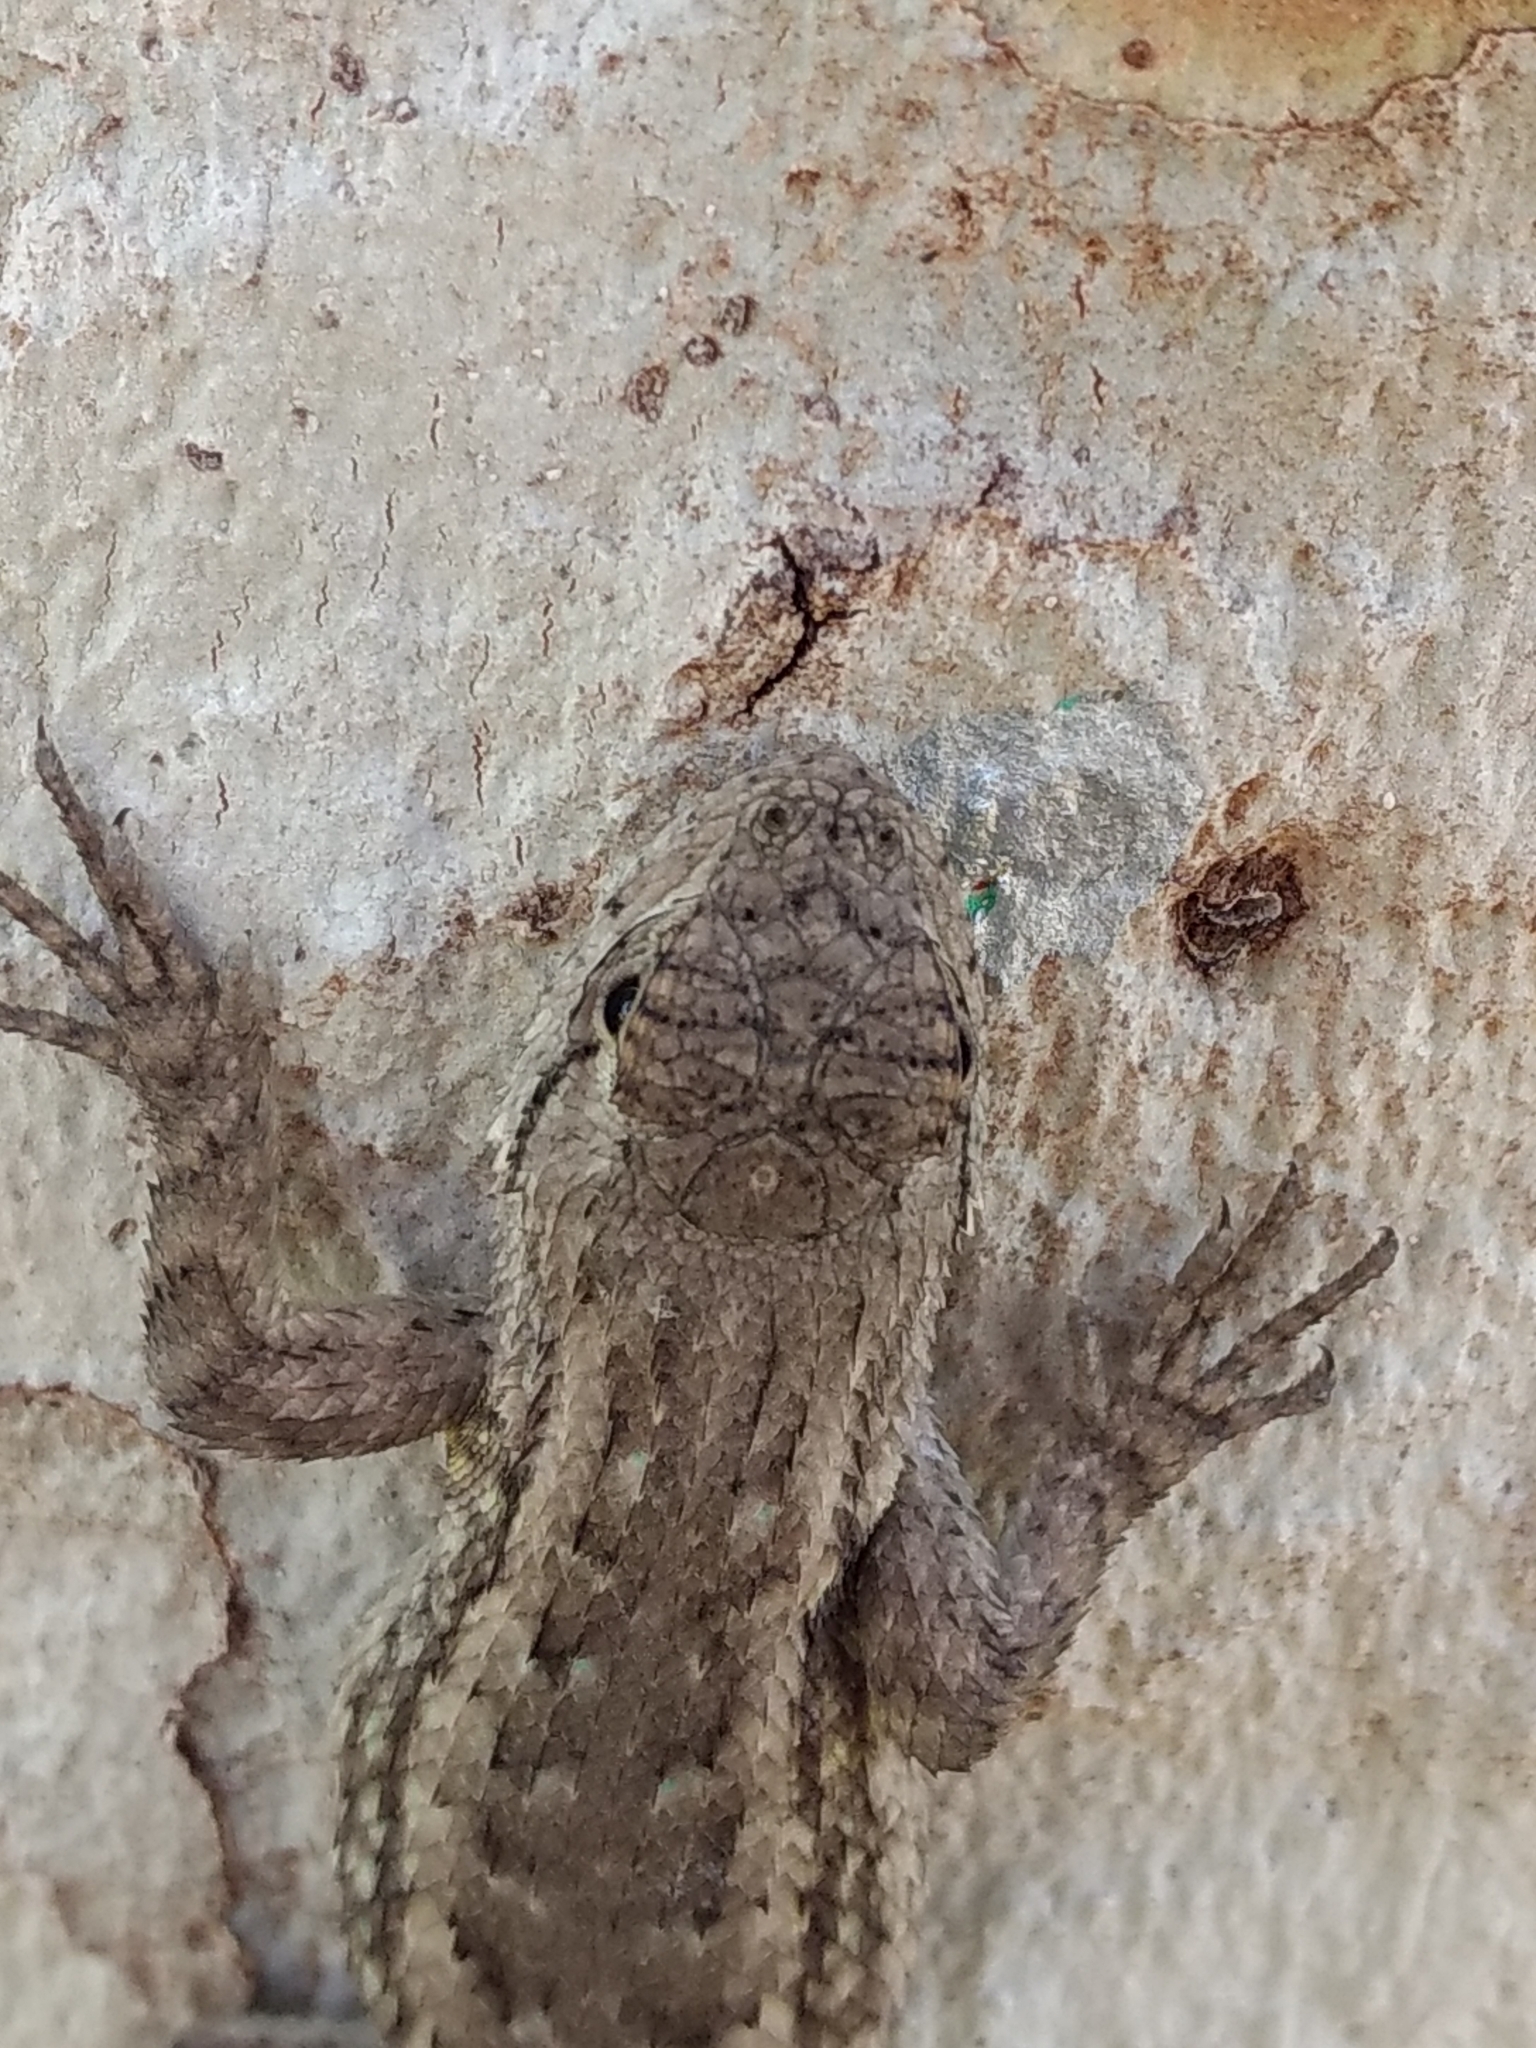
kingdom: Animalia
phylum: Chordata
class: Squamata
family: Phrynosomatidae
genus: Sceloporus
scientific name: Sceloporus occidentalis
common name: Western fence lizard
